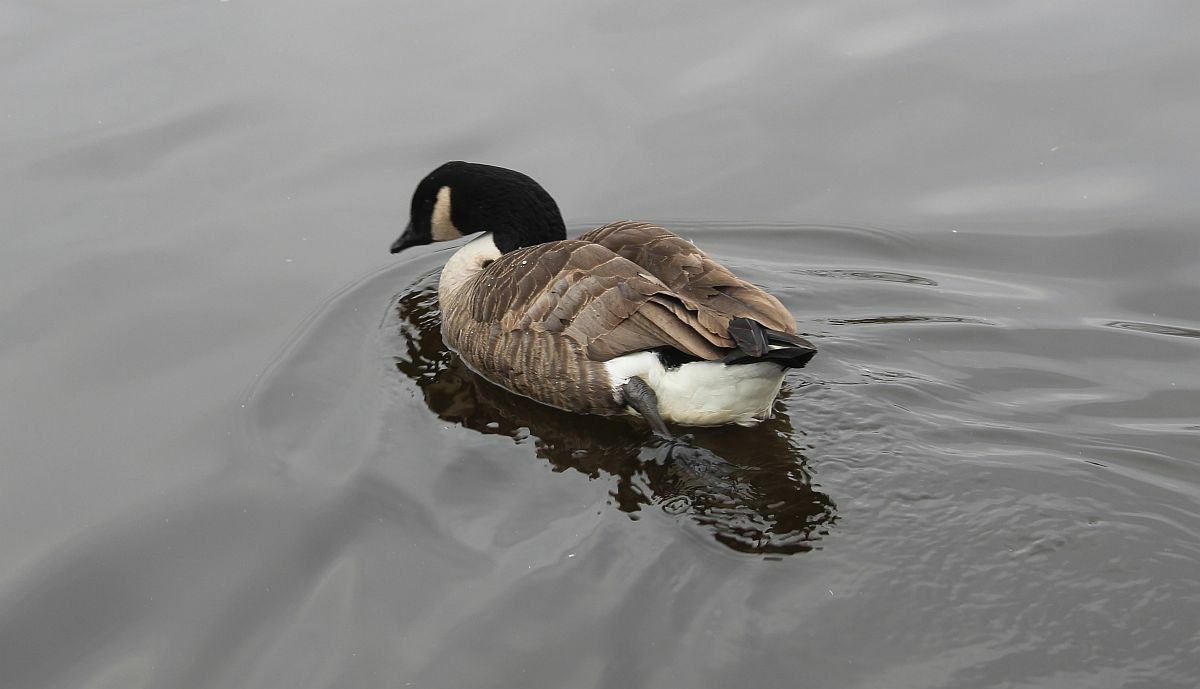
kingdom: Animalia
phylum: Chordata
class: Aves
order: Anseriformes
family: Anatidae
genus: Branta
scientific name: Branta canadensis
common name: Canada goose
